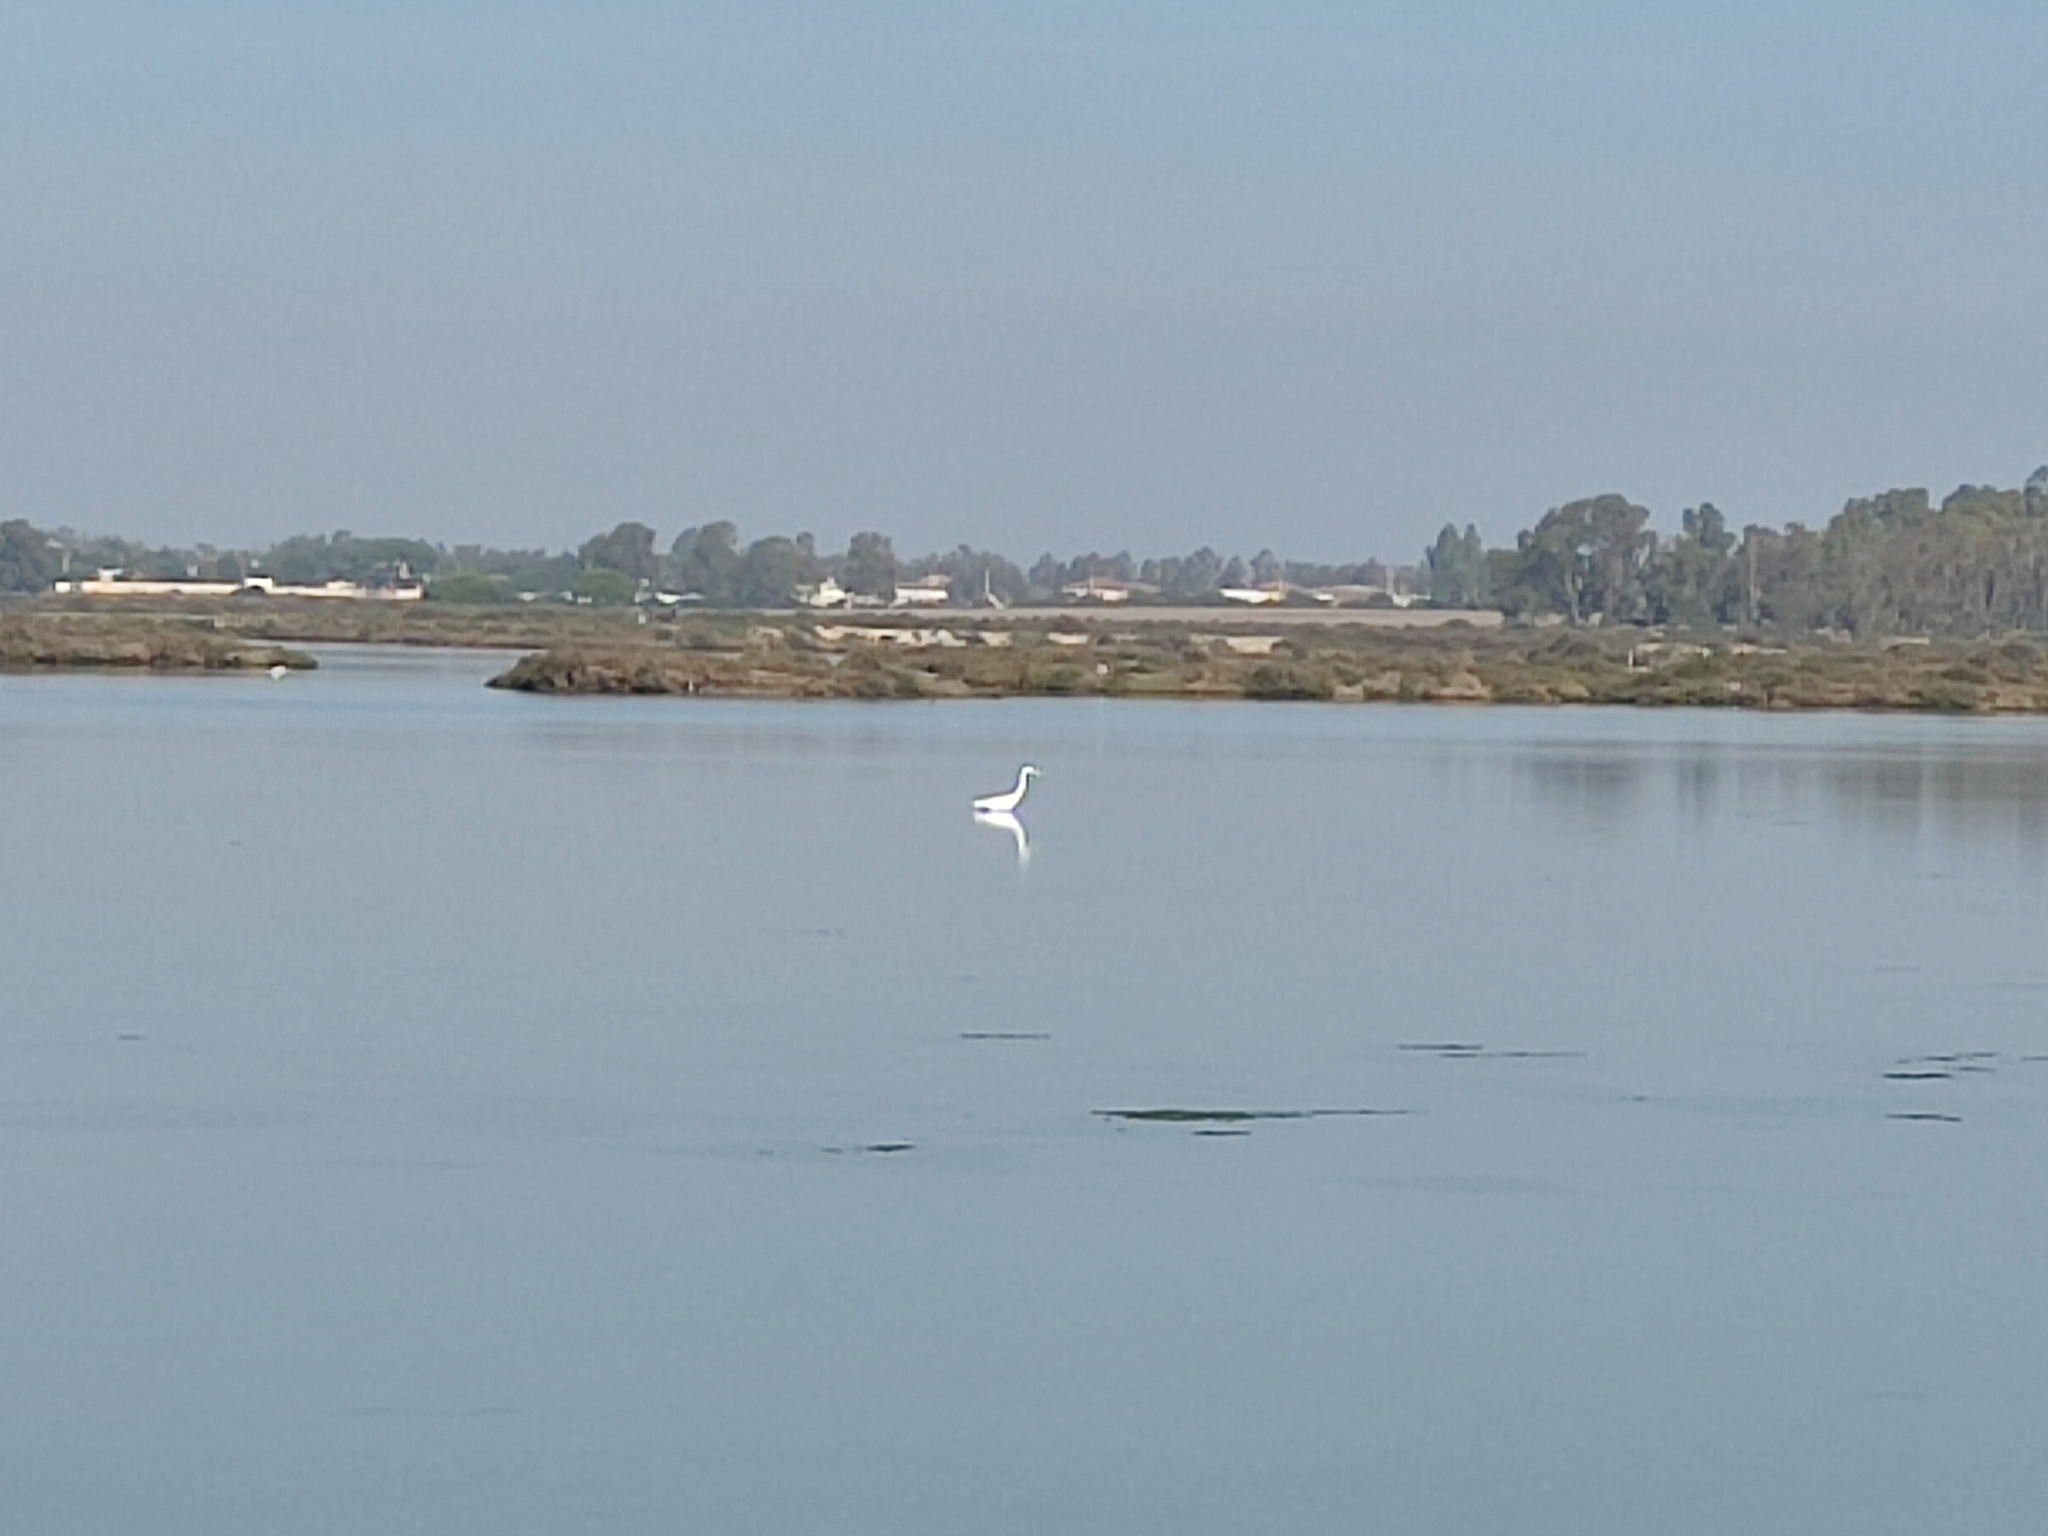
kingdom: Animalia
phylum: Chordata
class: Aves
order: Pelecaniformes
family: Ardeidae
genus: Ardea
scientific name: Ardea alba
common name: Great egret
